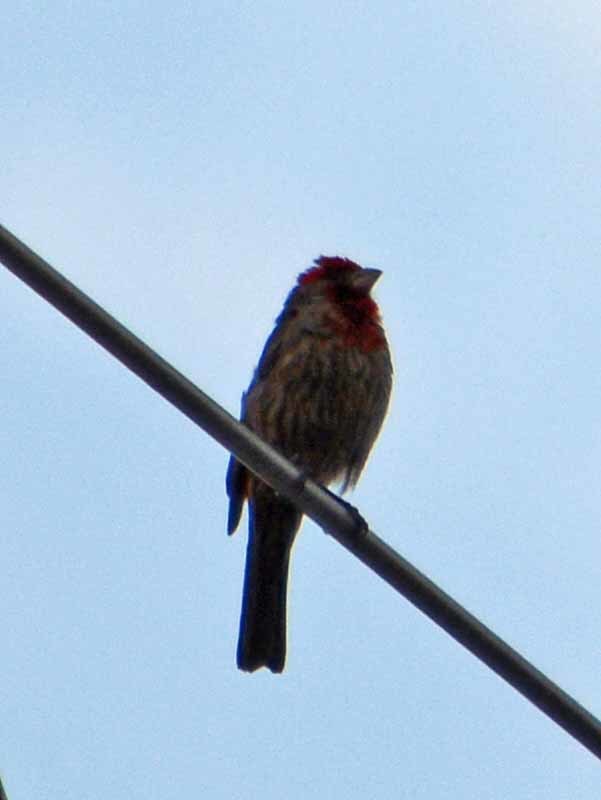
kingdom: Animalia
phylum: Chordata
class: Aves
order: Passeriformes
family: Fringillidae
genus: Haemorhous
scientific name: Haemorhous mexicanus
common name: House finch
